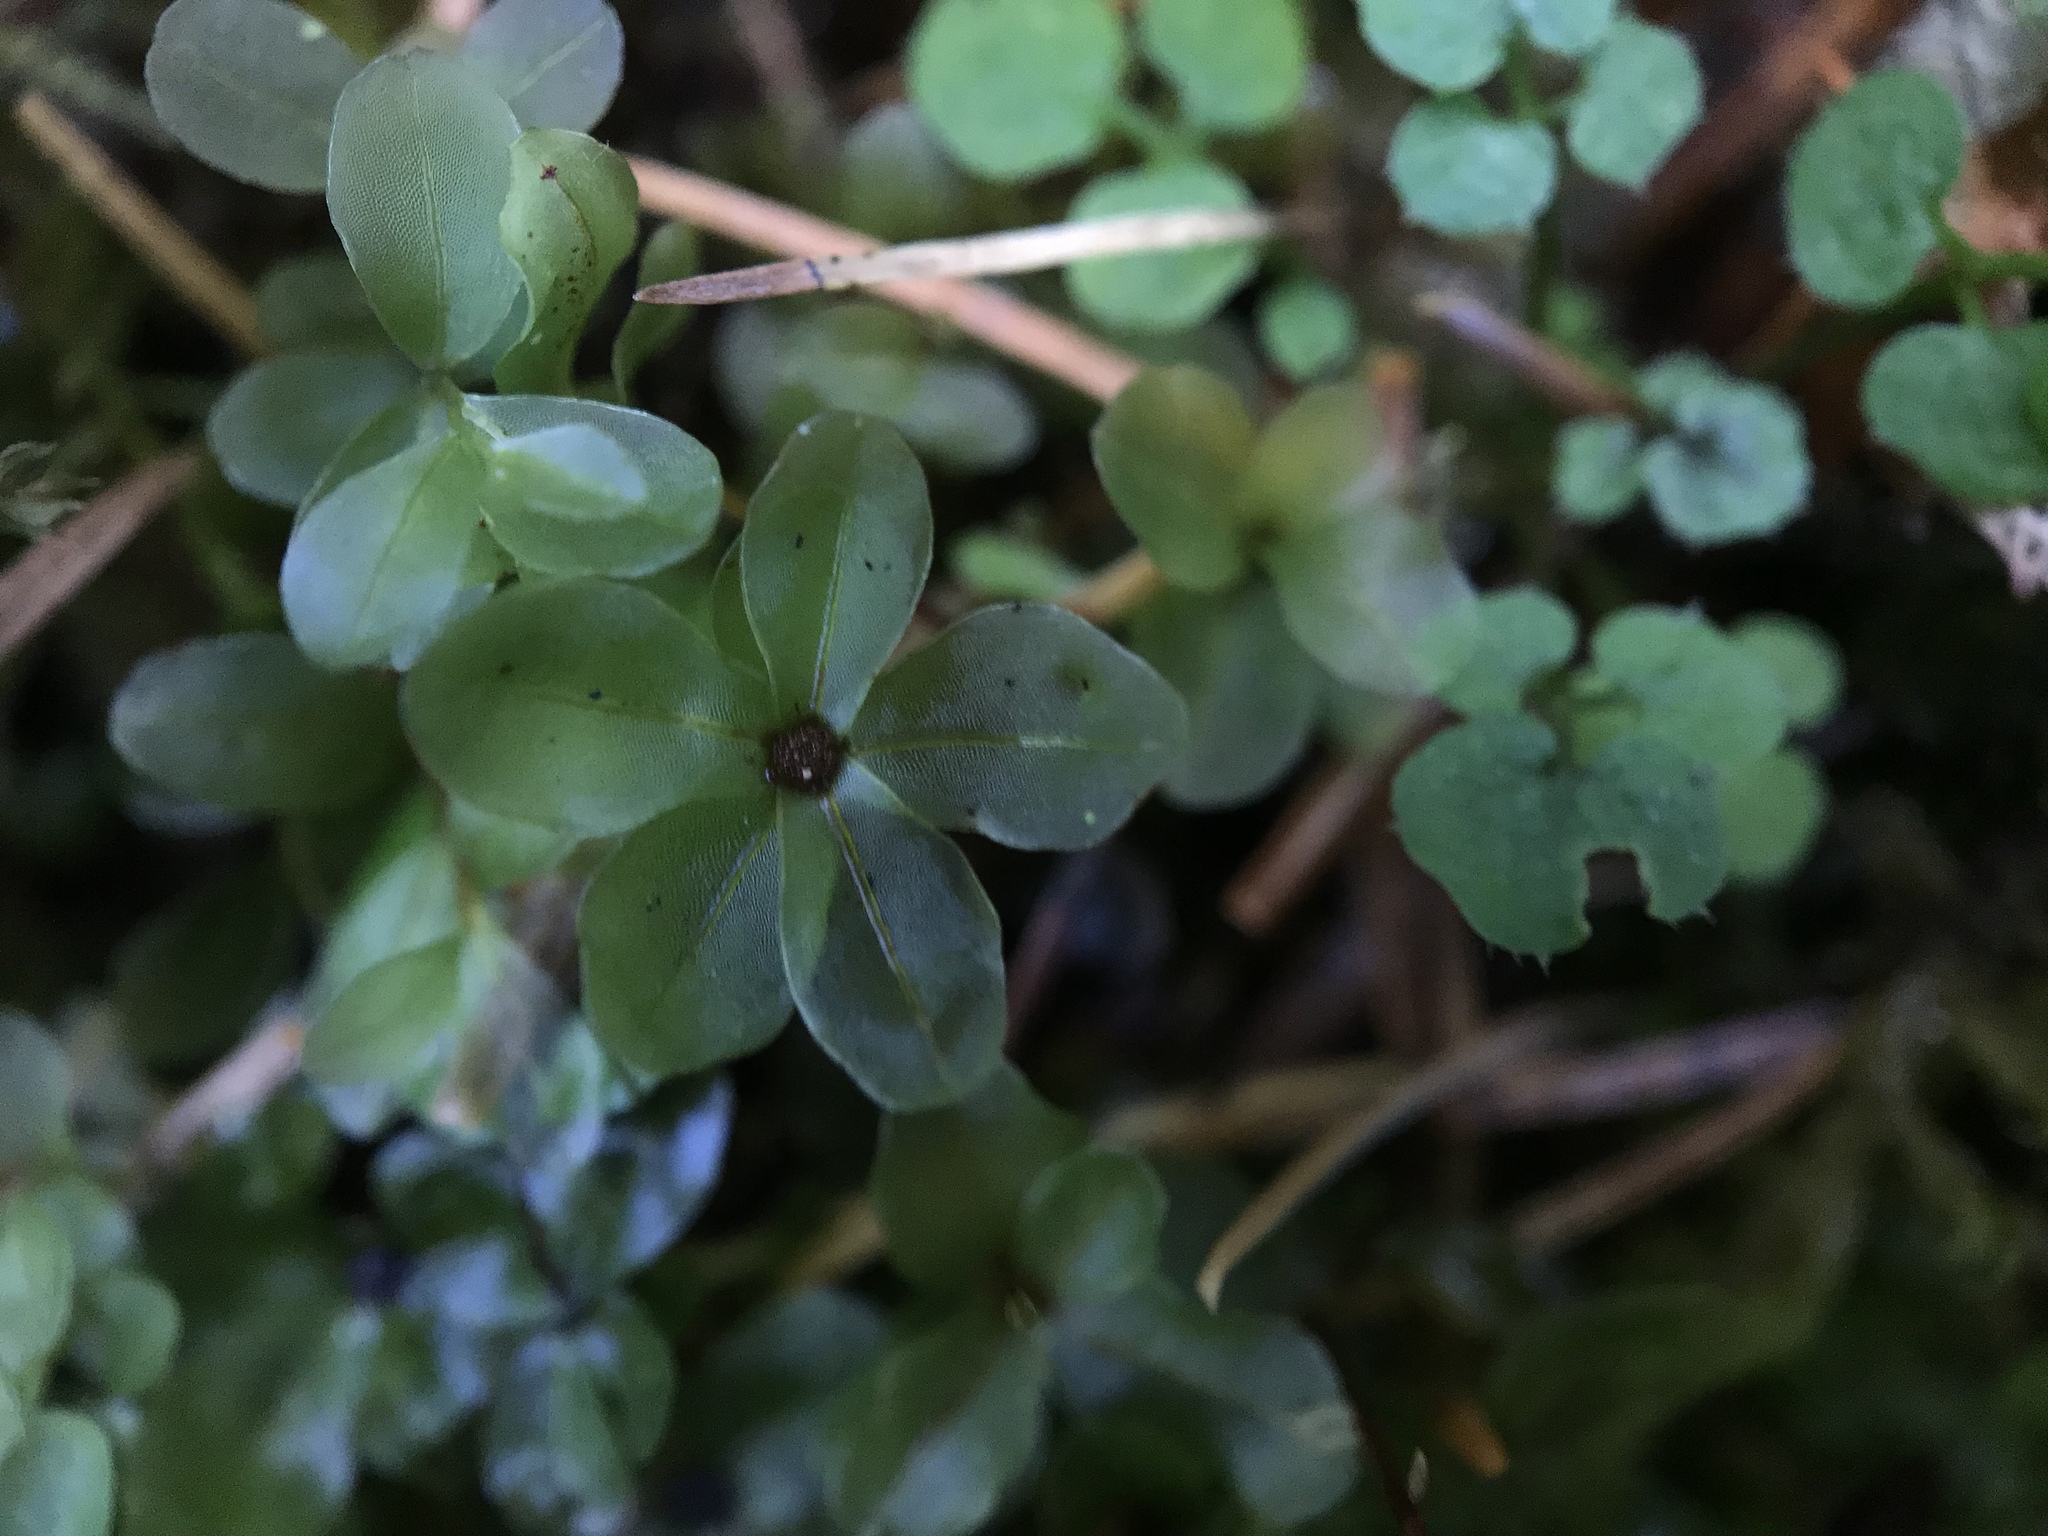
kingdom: Plantae
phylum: Bryophyta
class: Bryopsida
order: Bryales
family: Mniaceae
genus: Rhizomnium
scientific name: Rhizomnium punctatum
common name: Dotted leafy moss
